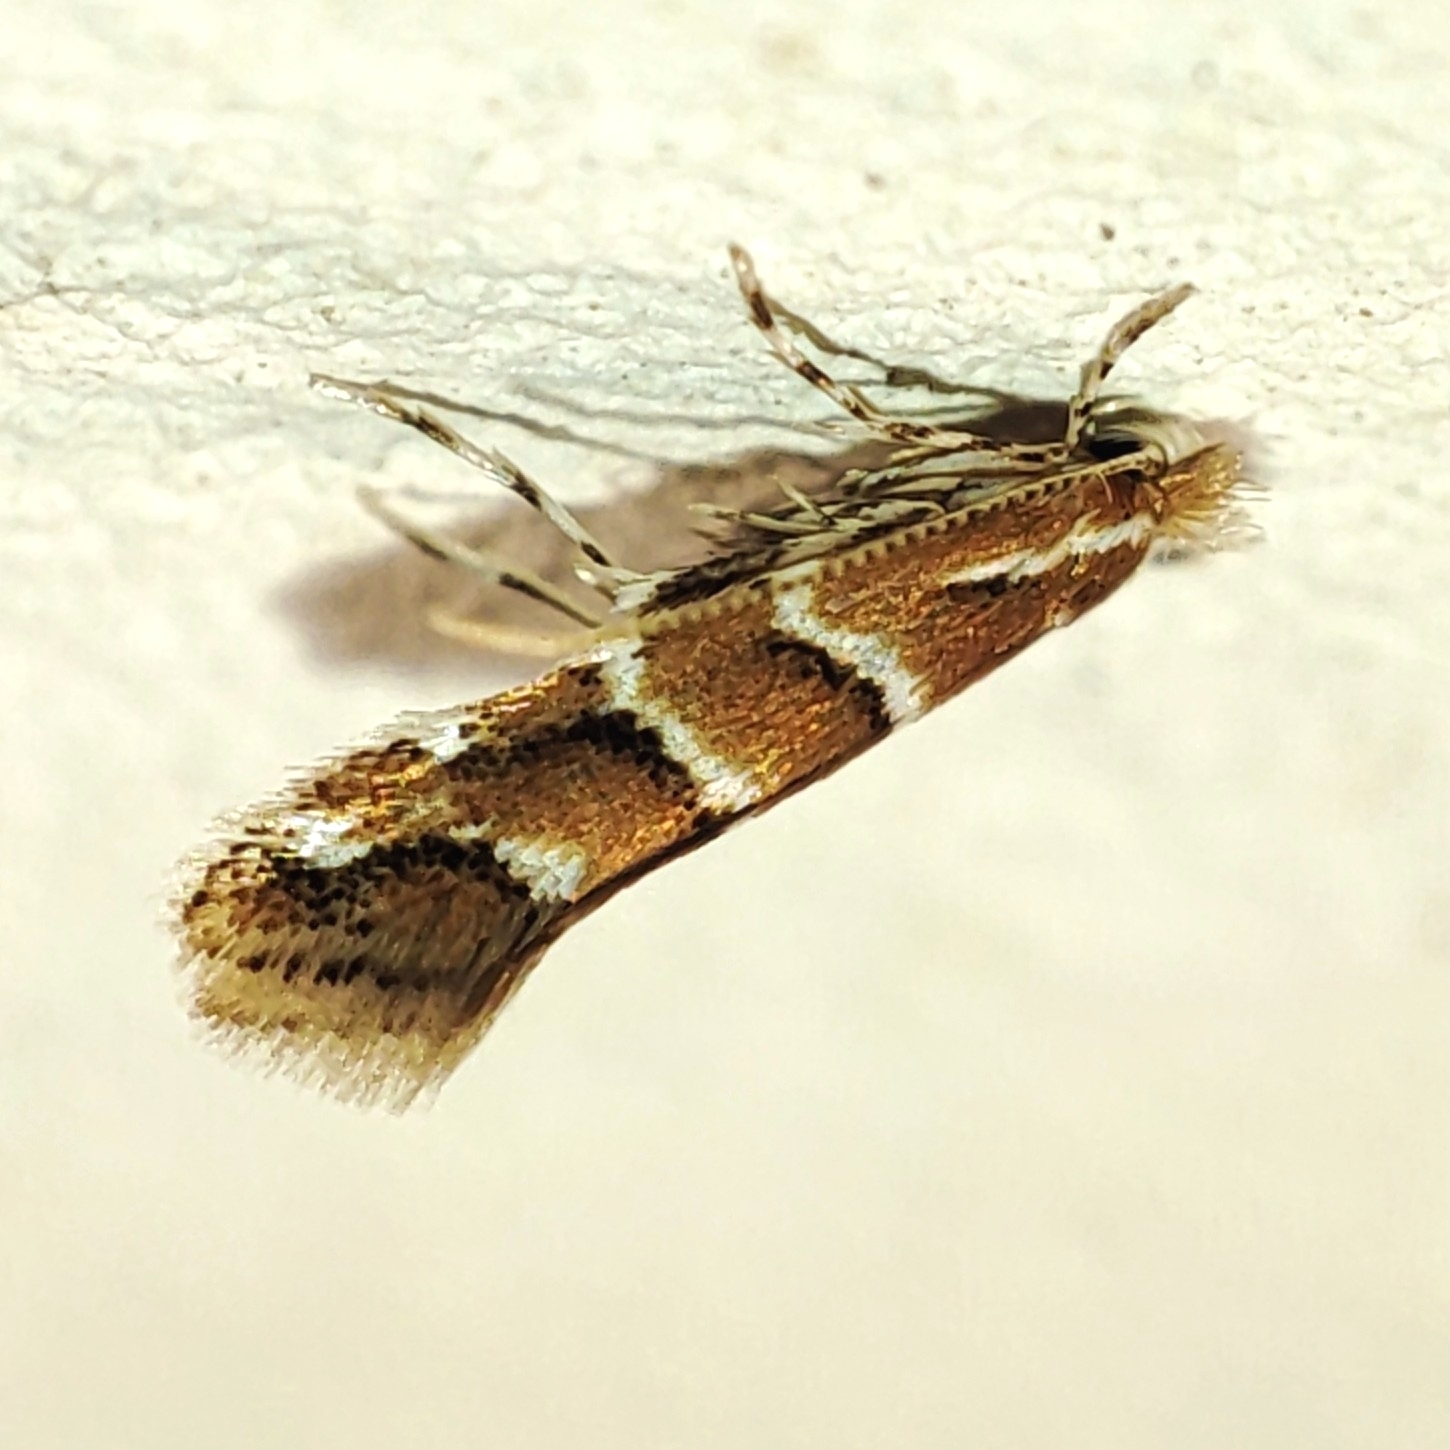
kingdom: Animalia
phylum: Arthropoda
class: Insecta
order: Lepidoptera
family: Gracillariidae
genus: Cameraria
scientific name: Cameraria ohridella
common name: Horse-chestnut leaf-miner
